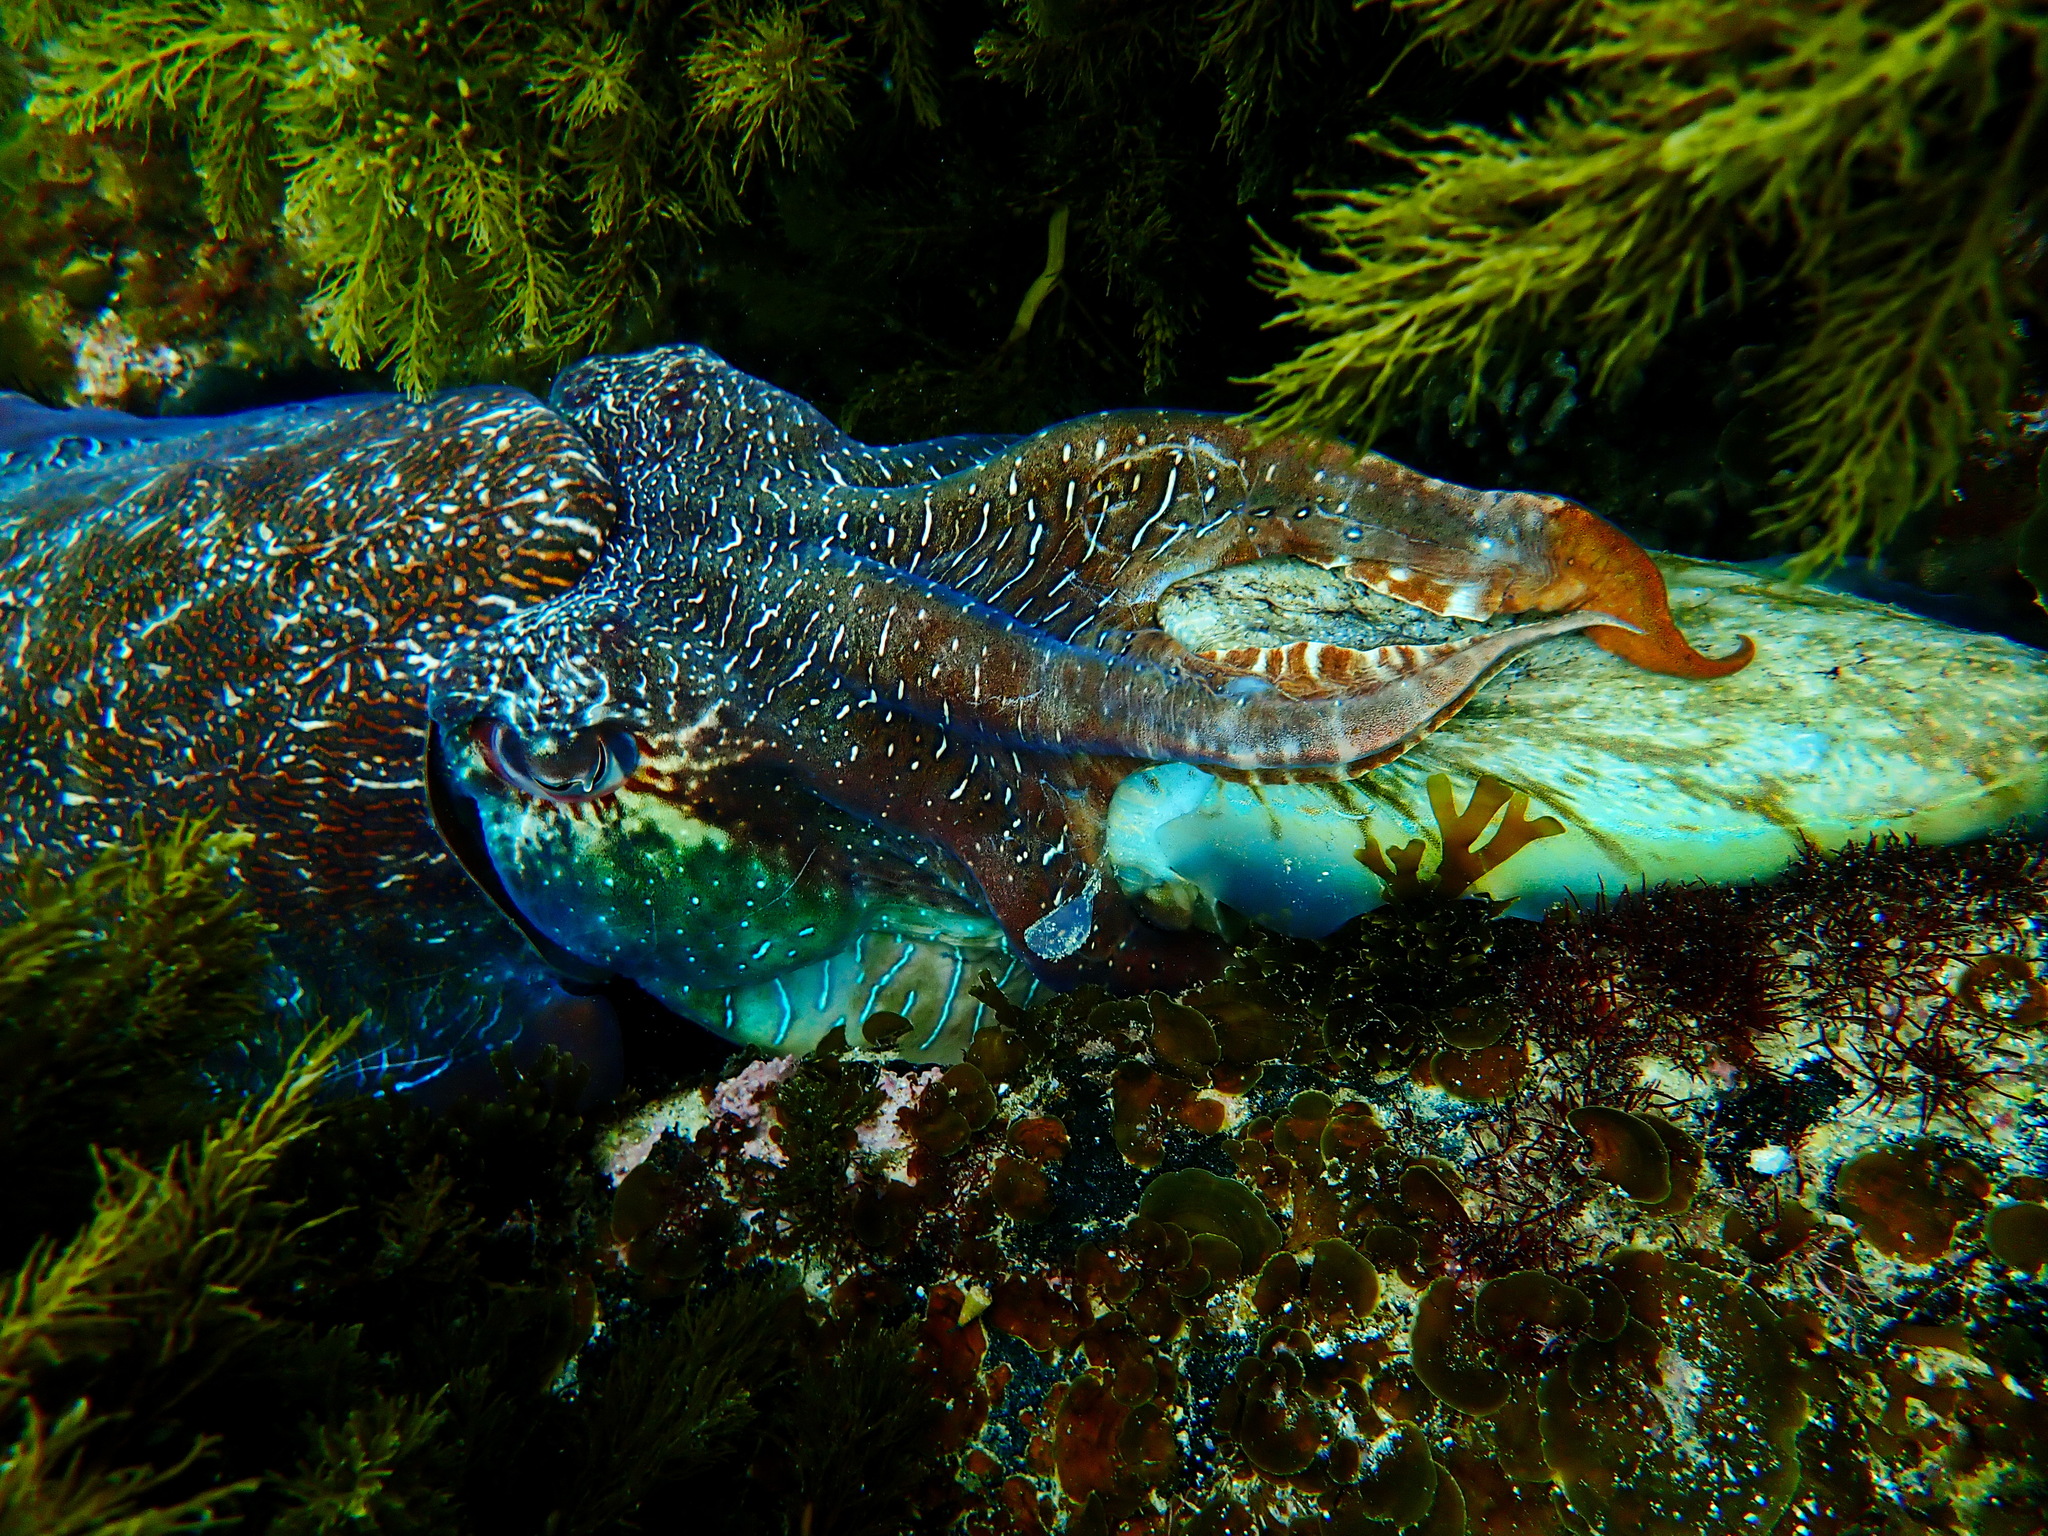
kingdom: Animalia
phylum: Mollusca
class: Cephalopoda
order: Sepiida
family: Sepiidae
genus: Ascarosepion
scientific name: Ascarosepion apama
